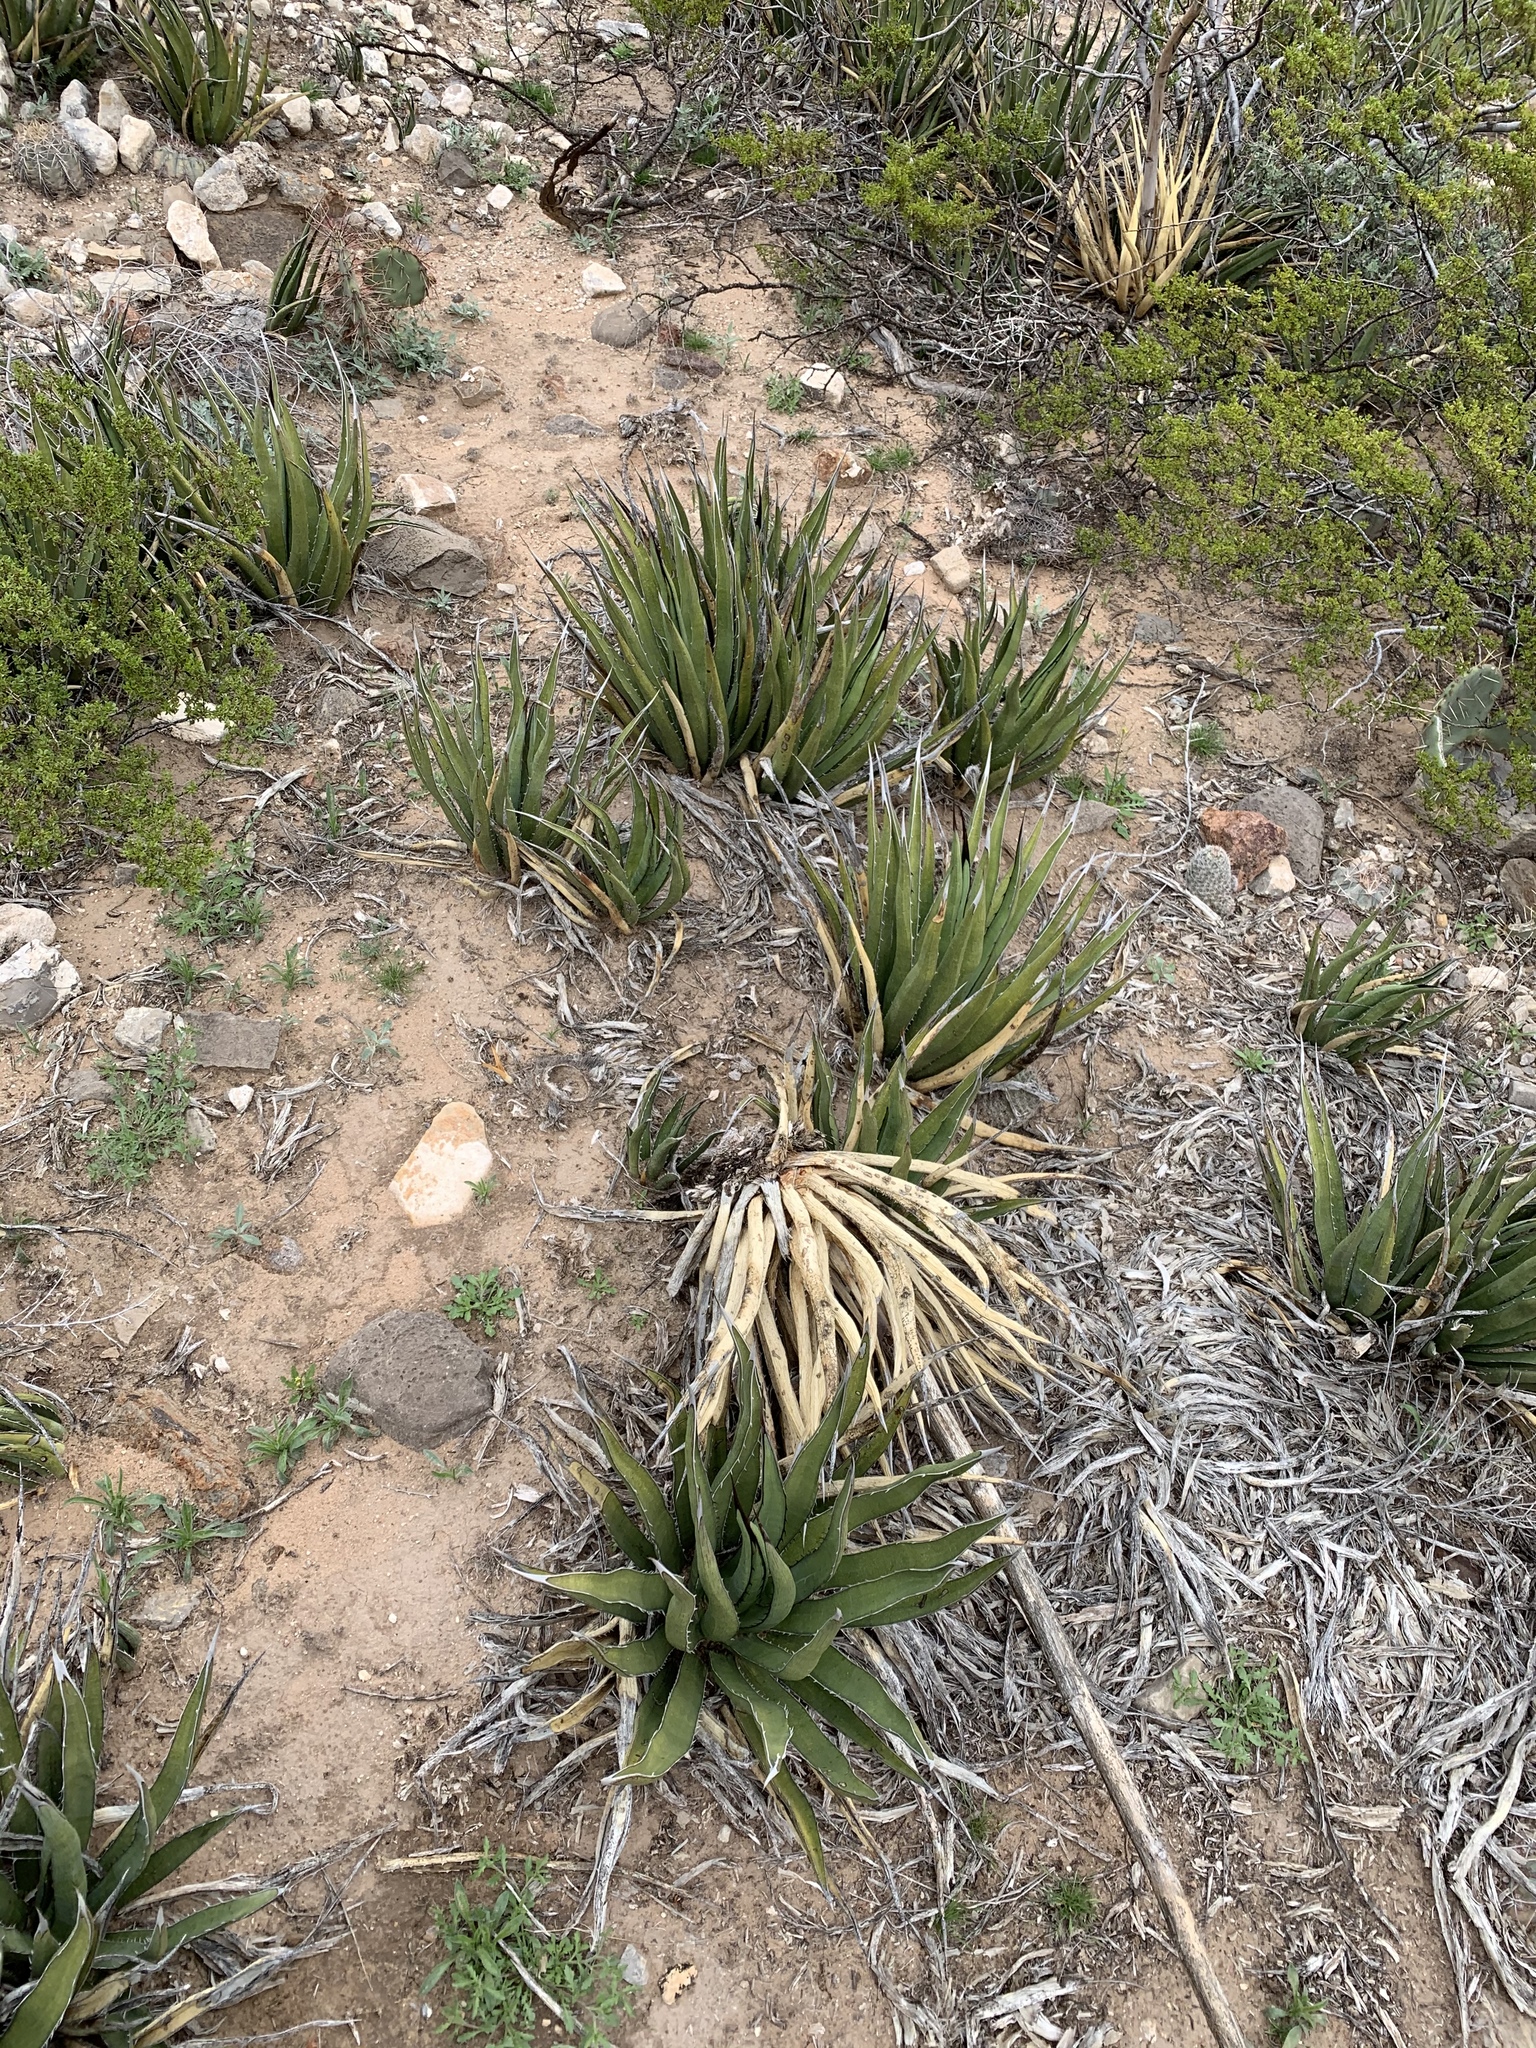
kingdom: Plantae
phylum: Tracheophyta
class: Liliopsida
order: Asparagales
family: Asparagaceae
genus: Agave
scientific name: Agave lechuguilla
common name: Lecheguilla agave
